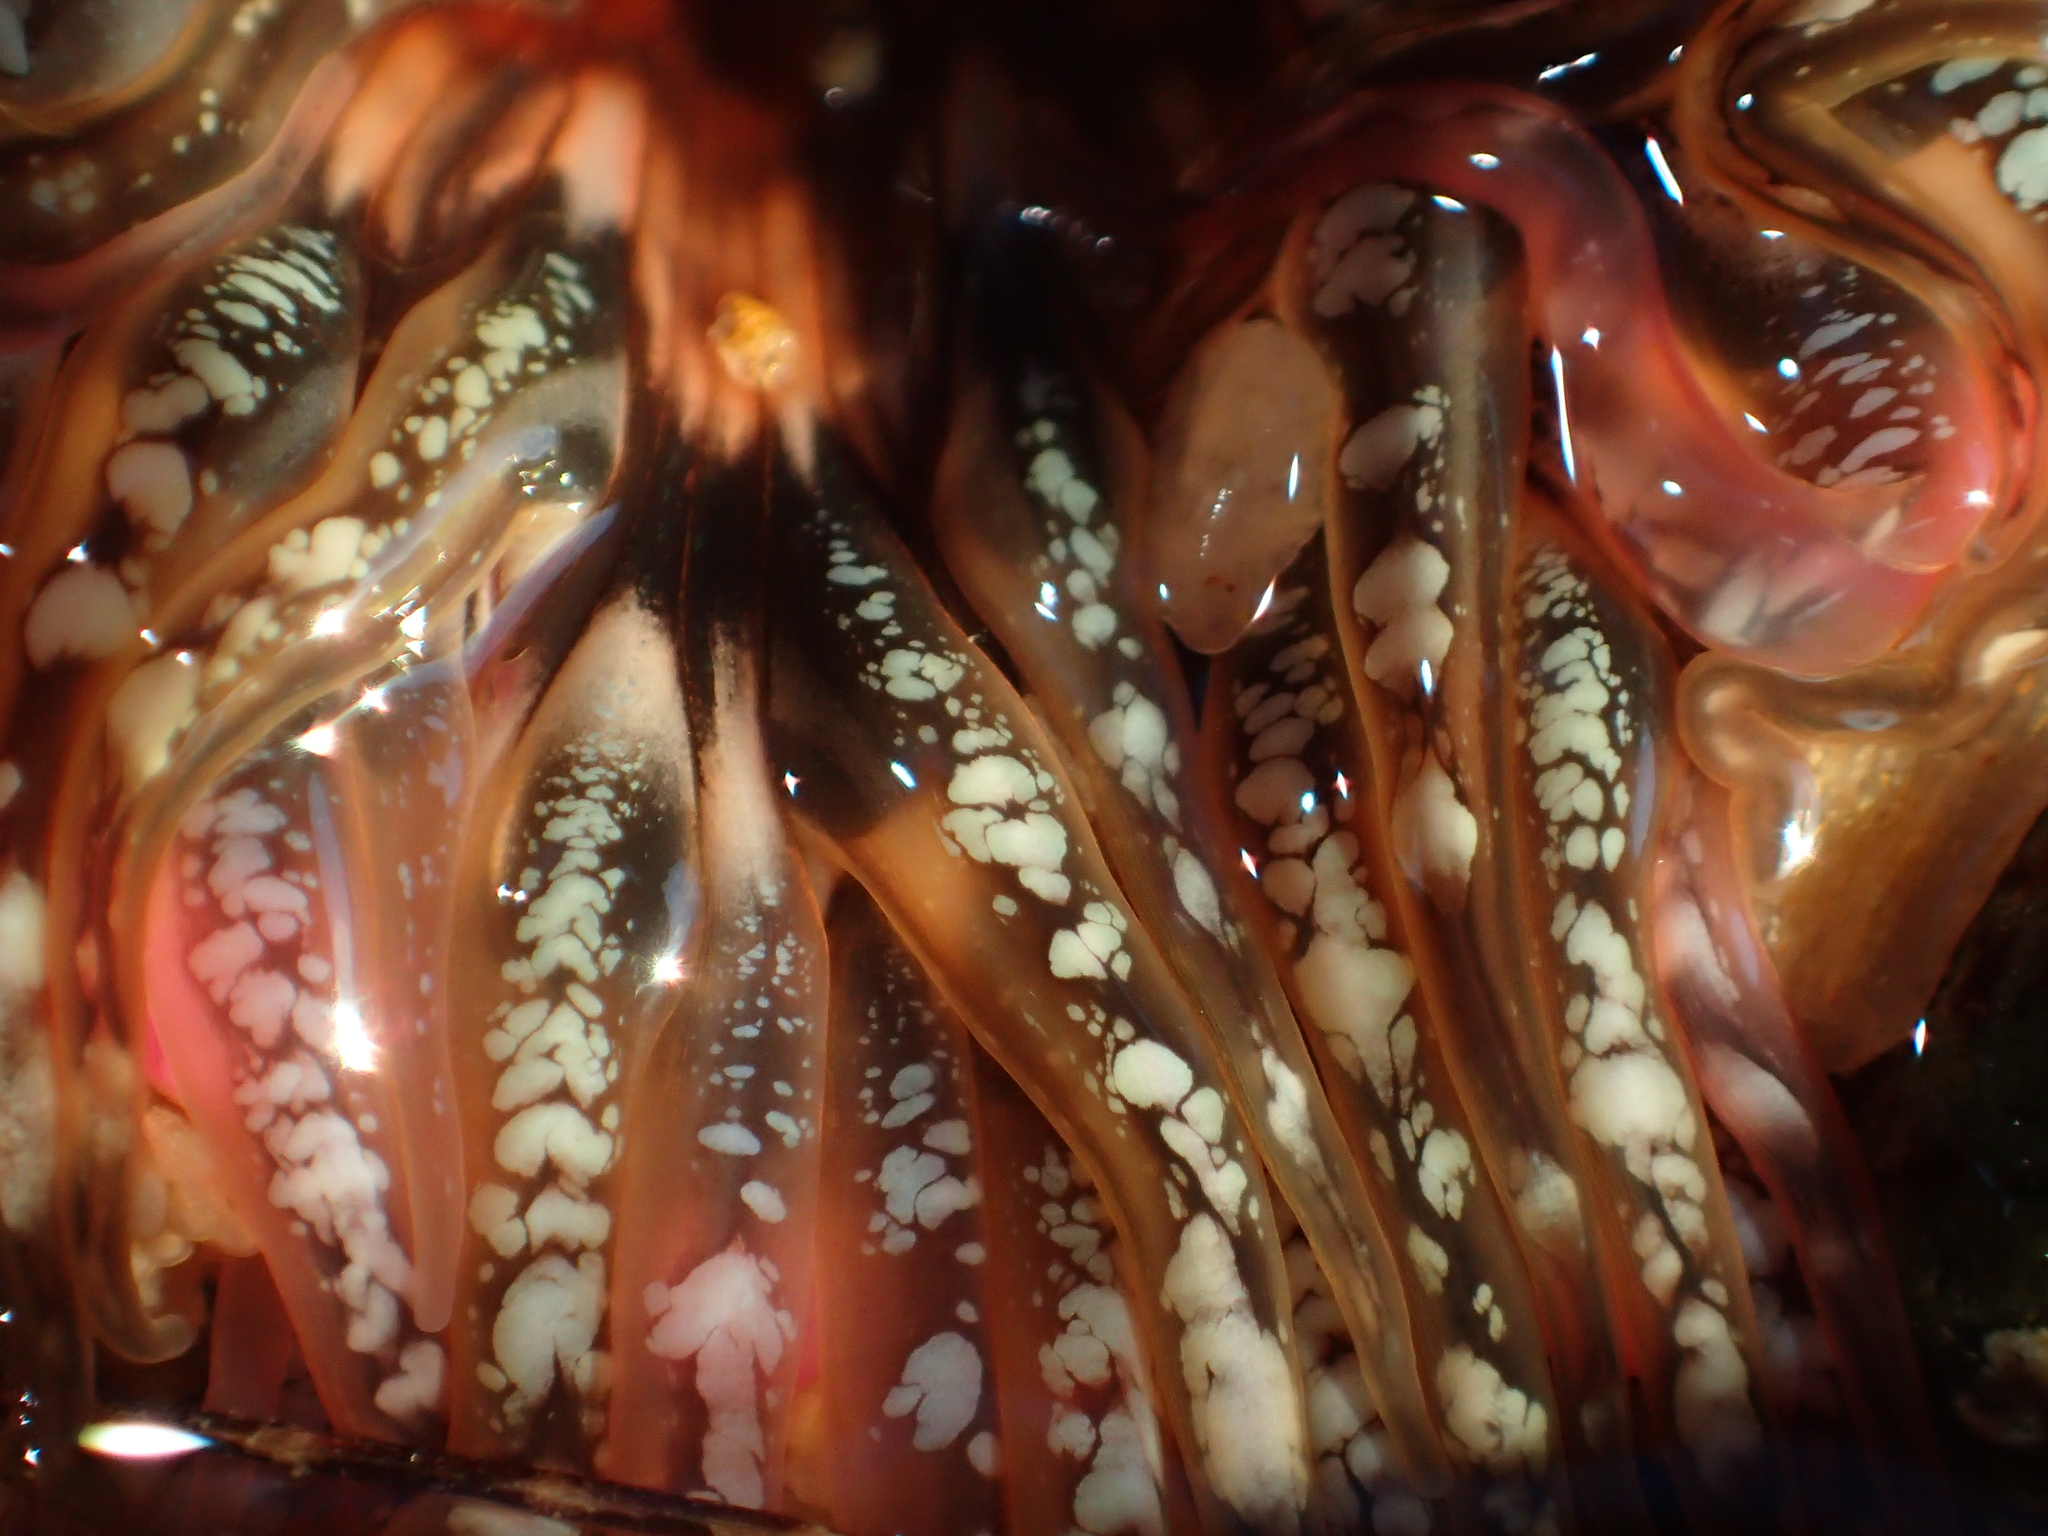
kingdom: Animalia
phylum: Cnidaria
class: Anthozoa
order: Actiniaria
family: Actiniidae
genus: Oulactis
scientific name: Oulactis muscosa
